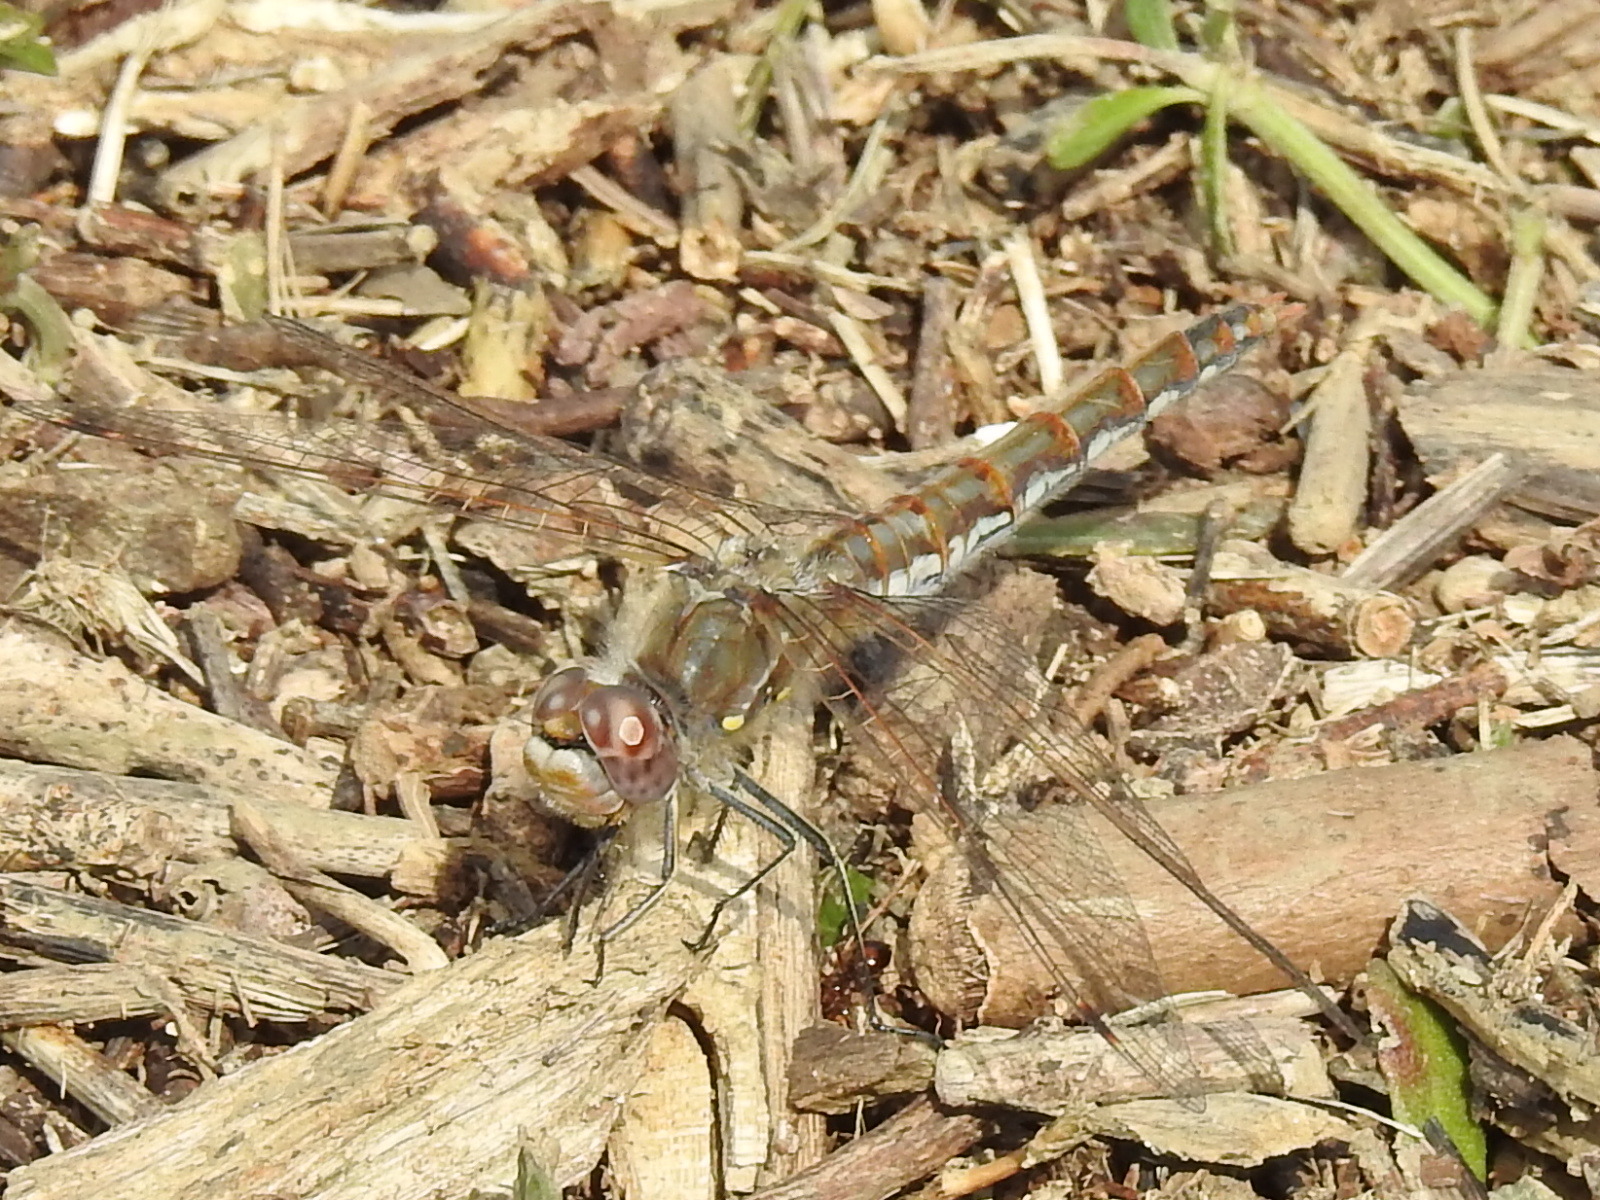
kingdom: Animalia
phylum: Arthropoda
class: Insecta
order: Odonata
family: Libellulidae
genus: Sympetrum
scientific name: Sympetrum corruptum
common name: Variegated meadowhawk
